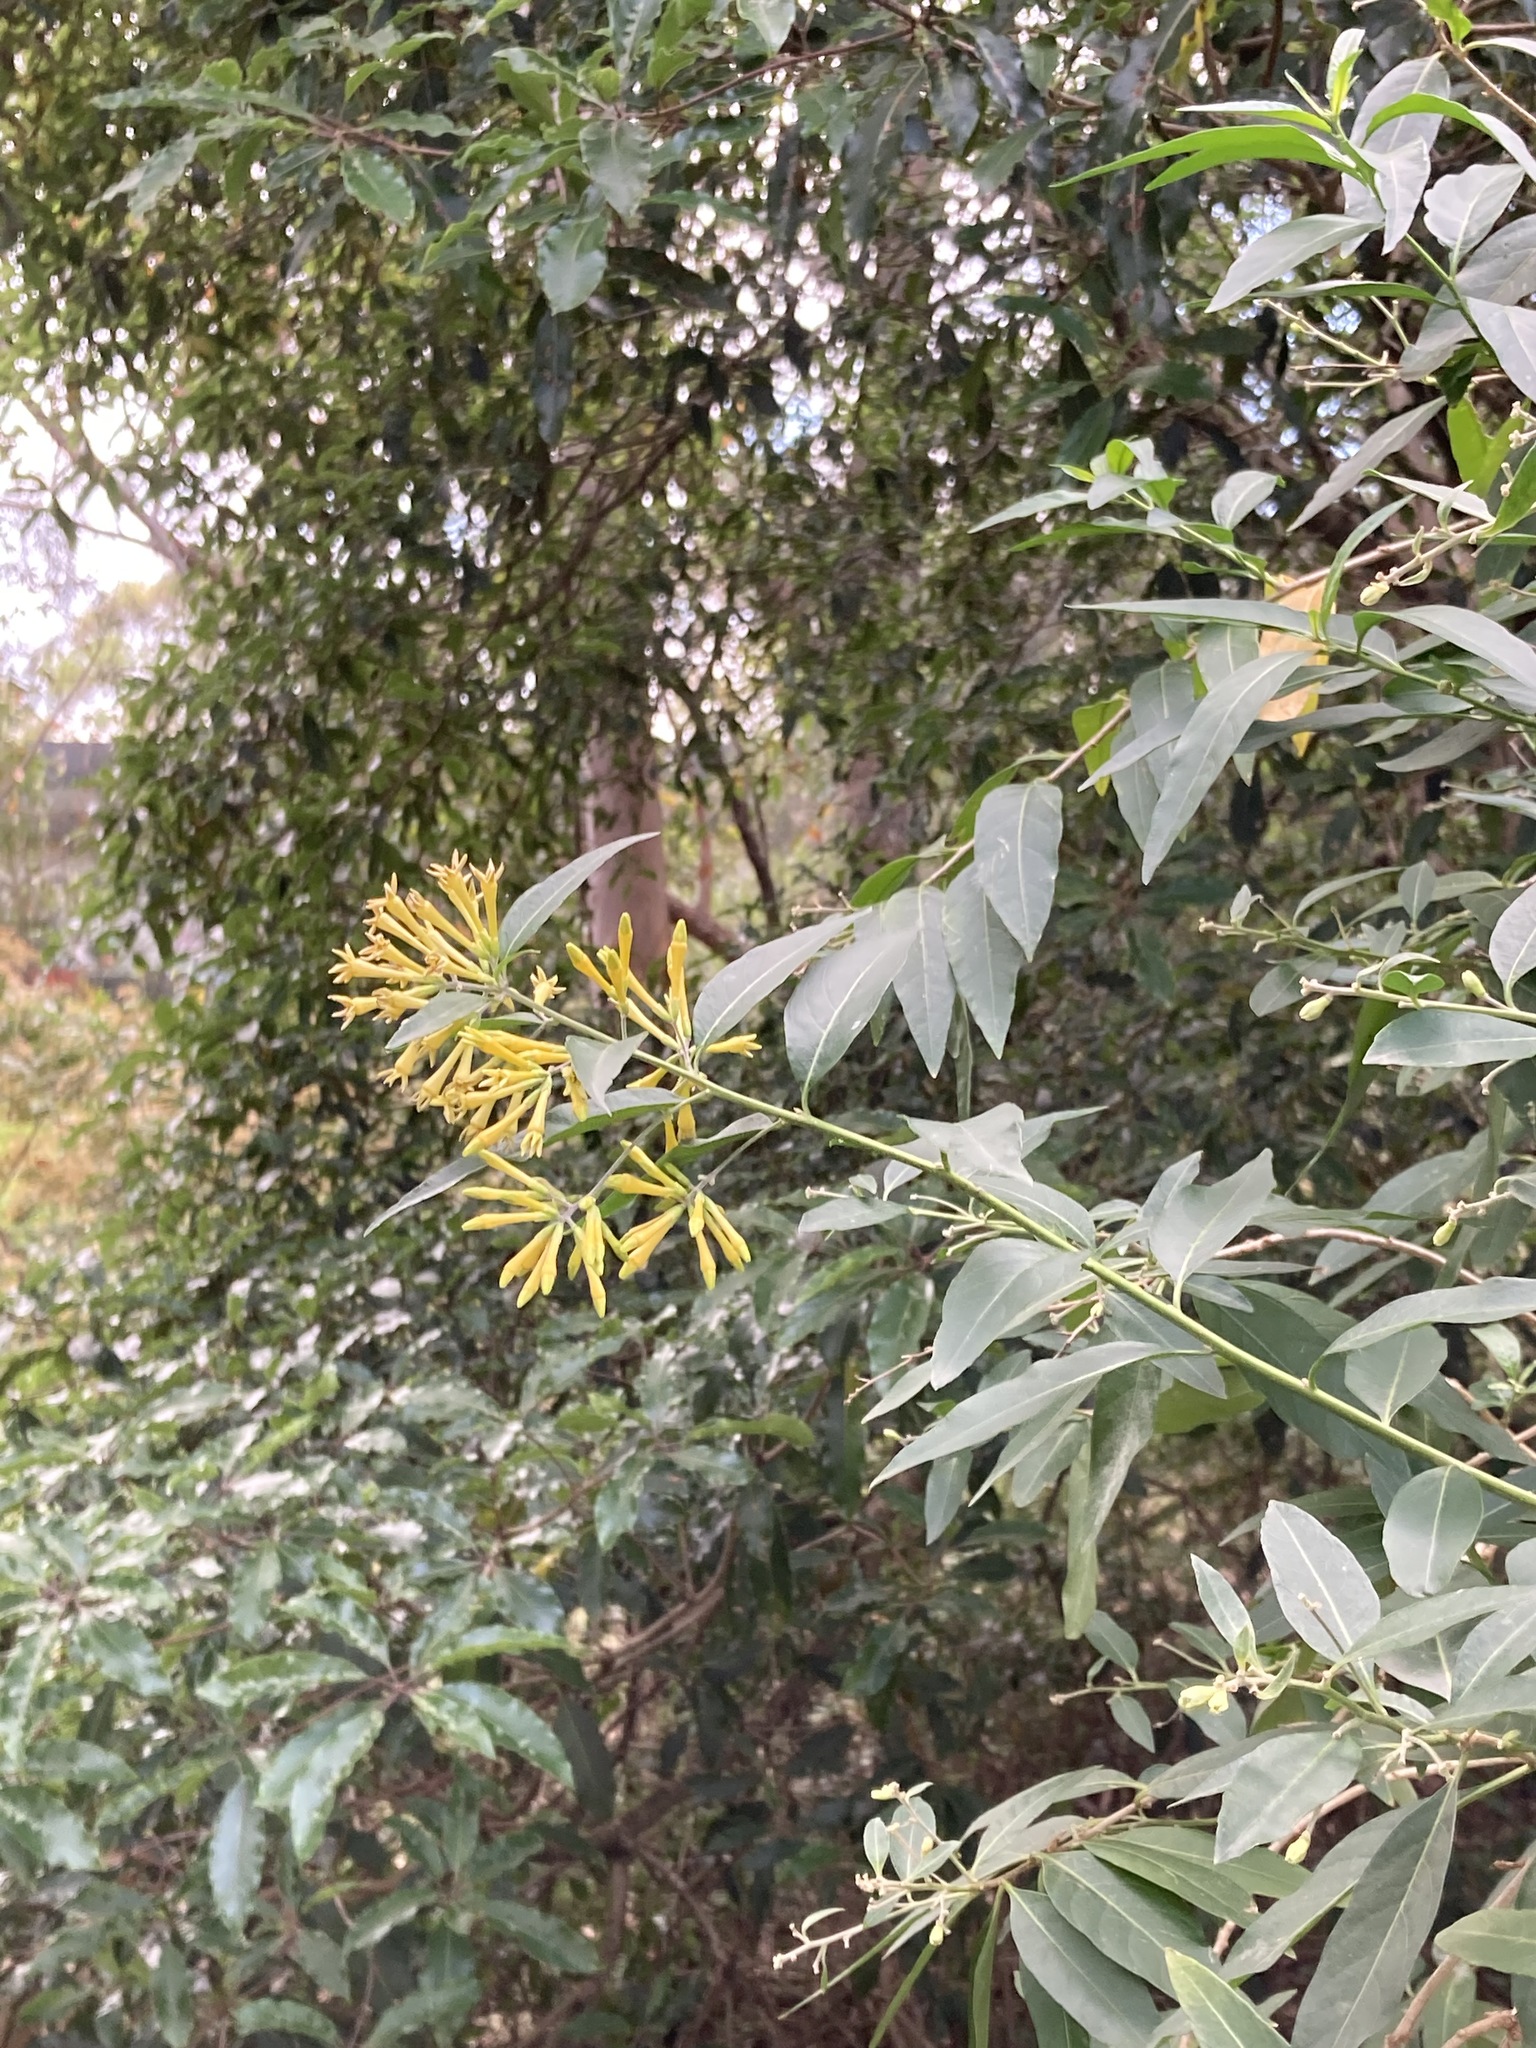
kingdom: Plantae
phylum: Tracheophyta
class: Magnoliopsida
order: Solanales
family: Solanaceae
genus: Cestrum
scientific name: Cestrum parqui
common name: Chilean cestrum
